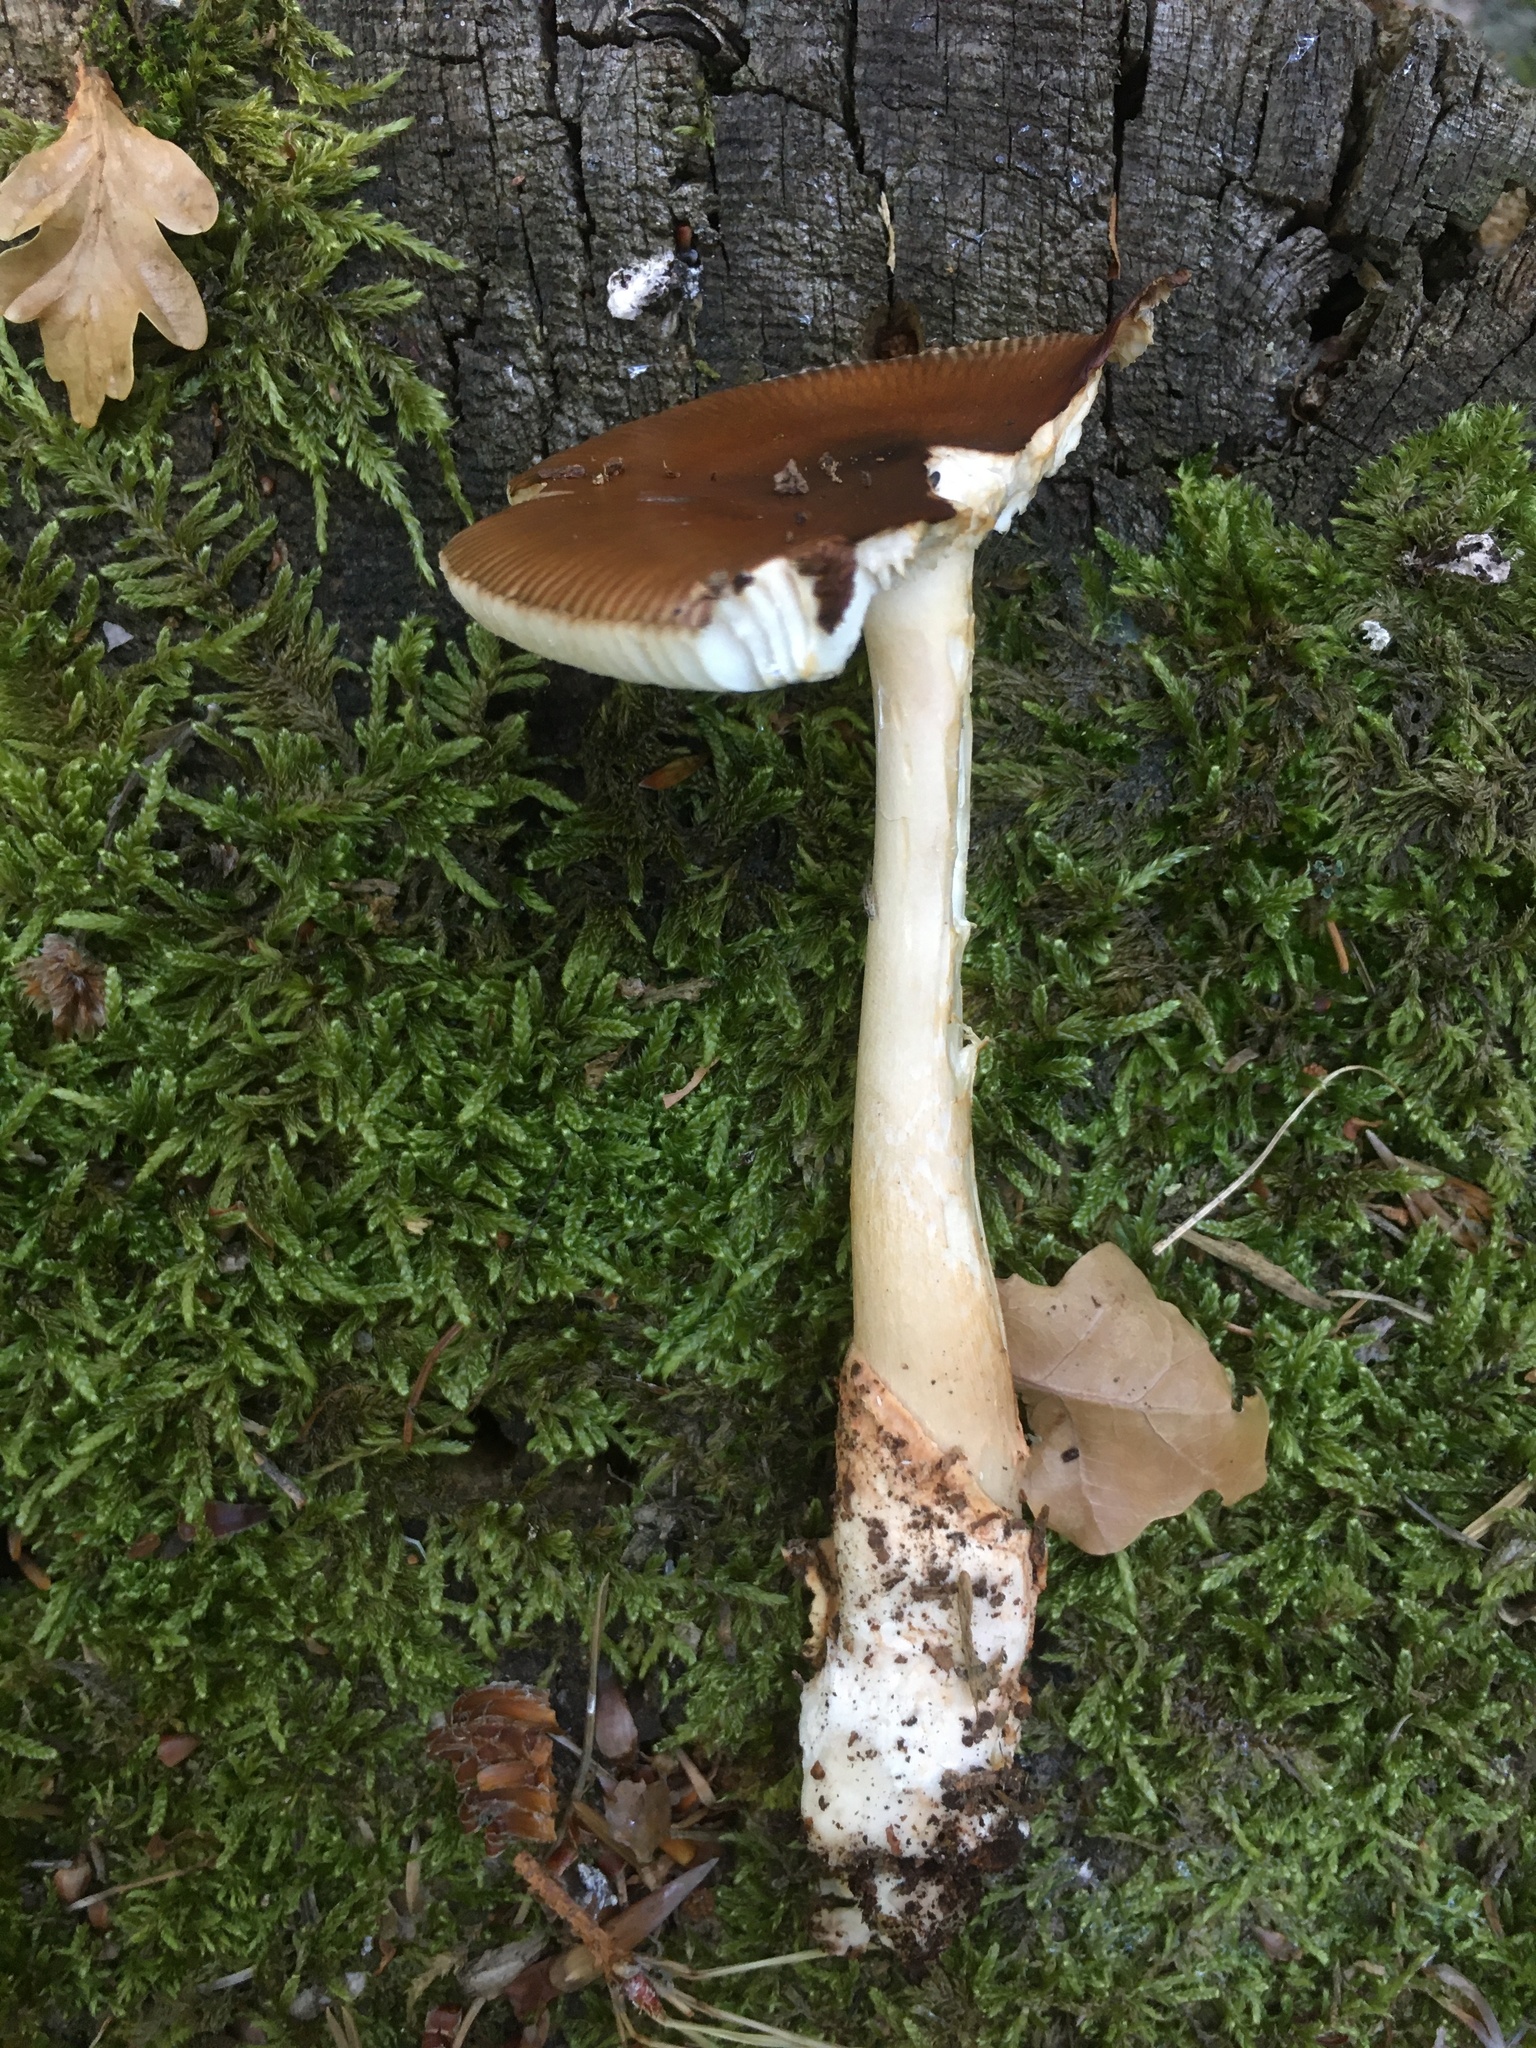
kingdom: Fungi
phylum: Basidiomycota
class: Agaricomycetes
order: Agaricales
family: Amanitaceae
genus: Amanita
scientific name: Amanita fulva
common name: Tawny grisette
